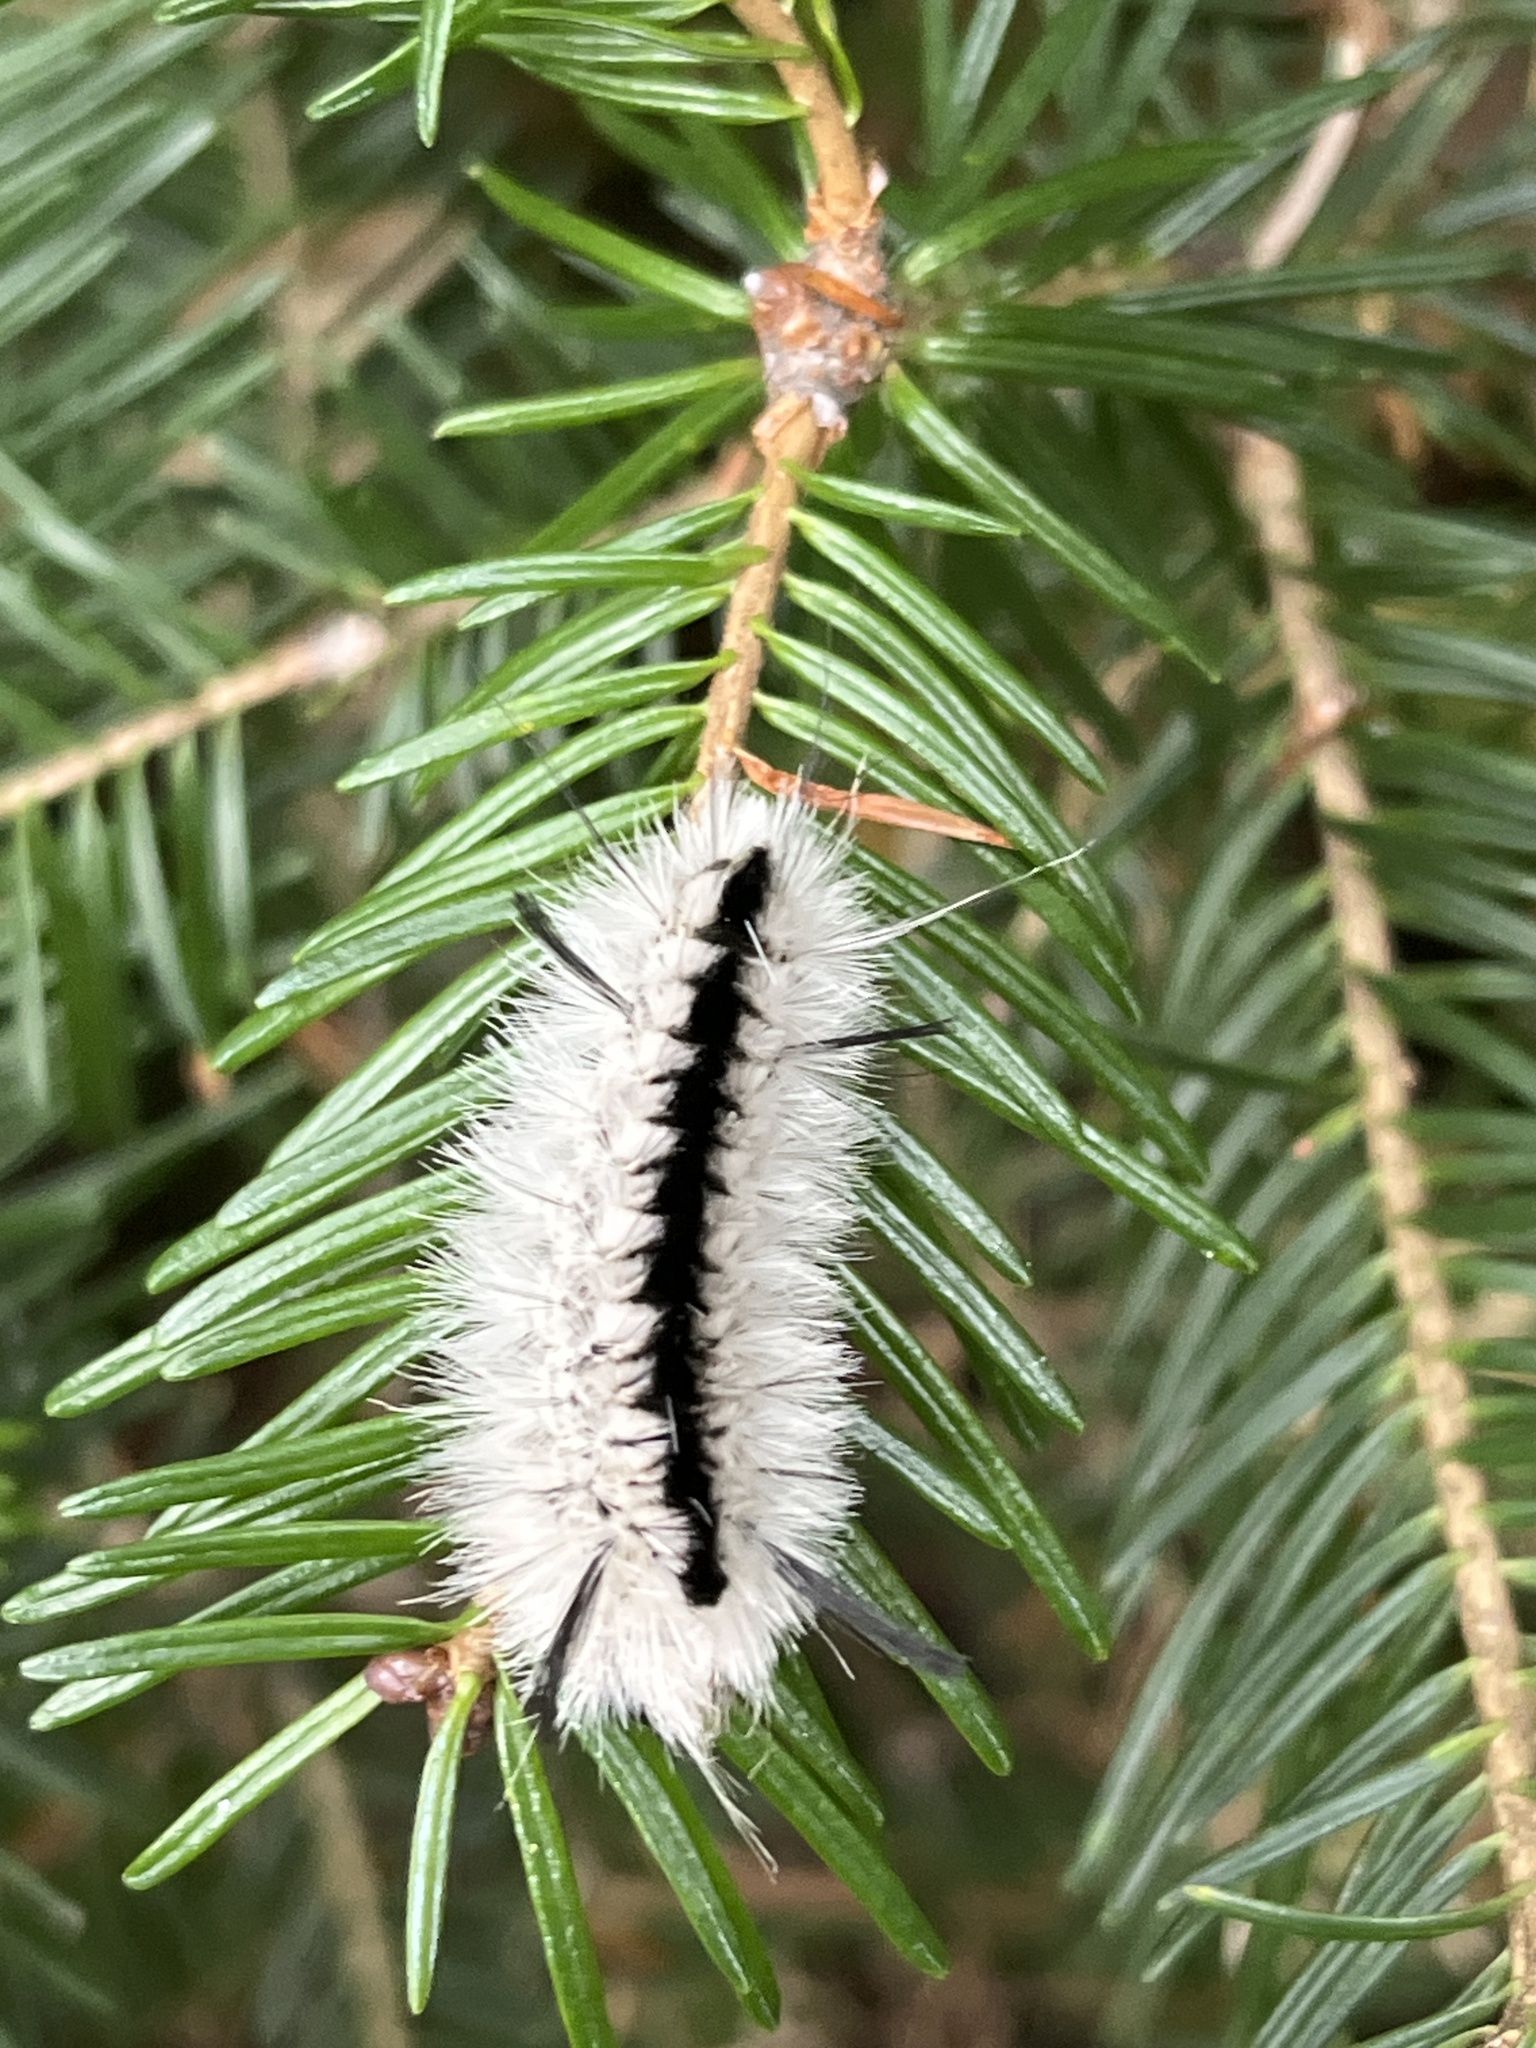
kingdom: Animalia
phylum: Arthropoda
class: Insecta
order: Lepidoptera
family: Erebidae
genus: Lophocampa
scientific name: Lophocampa caryae
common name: Hickory tussock moth
